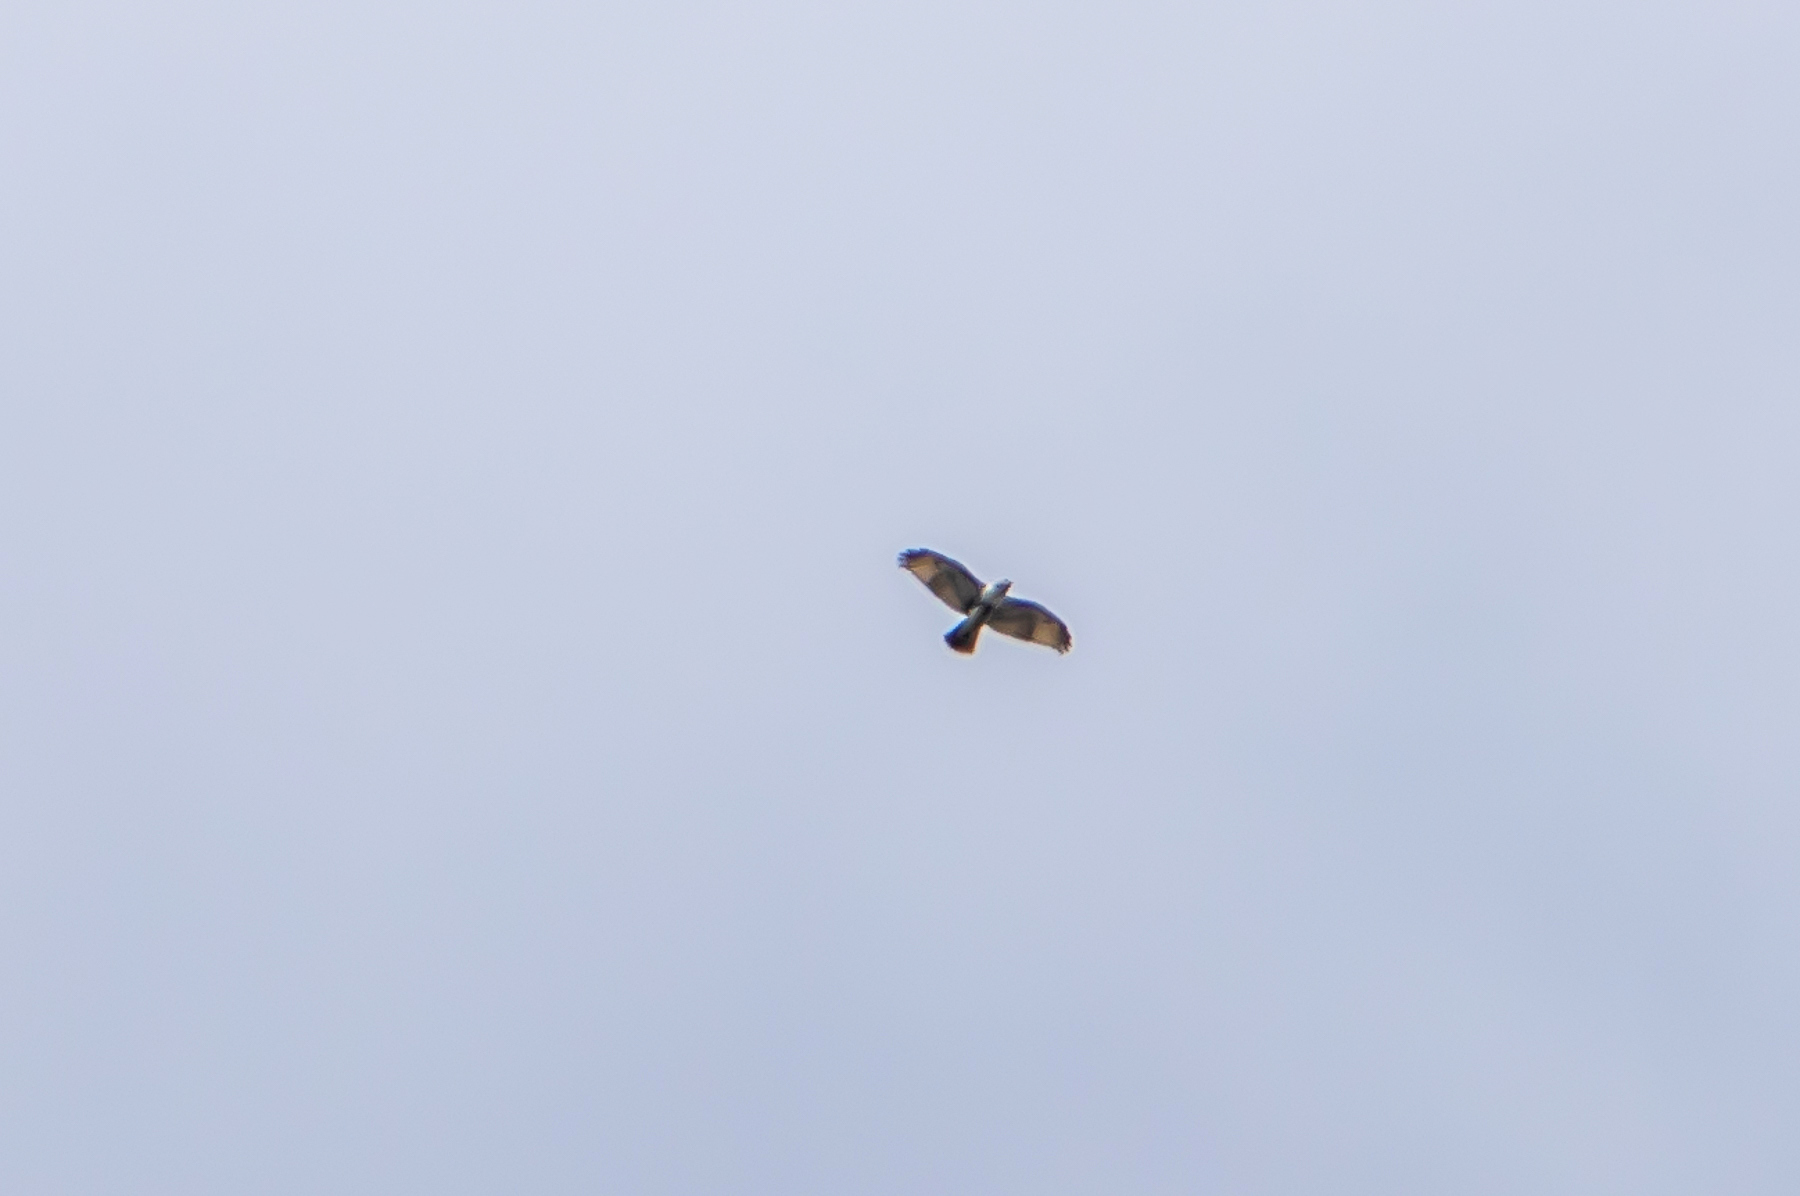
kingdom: Animalia
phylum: Chordata
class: Aves
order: Accipitriformes
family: Accipitridae
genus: Buteo
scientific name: Buteo lineatus
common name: Red-shouldered hawk
